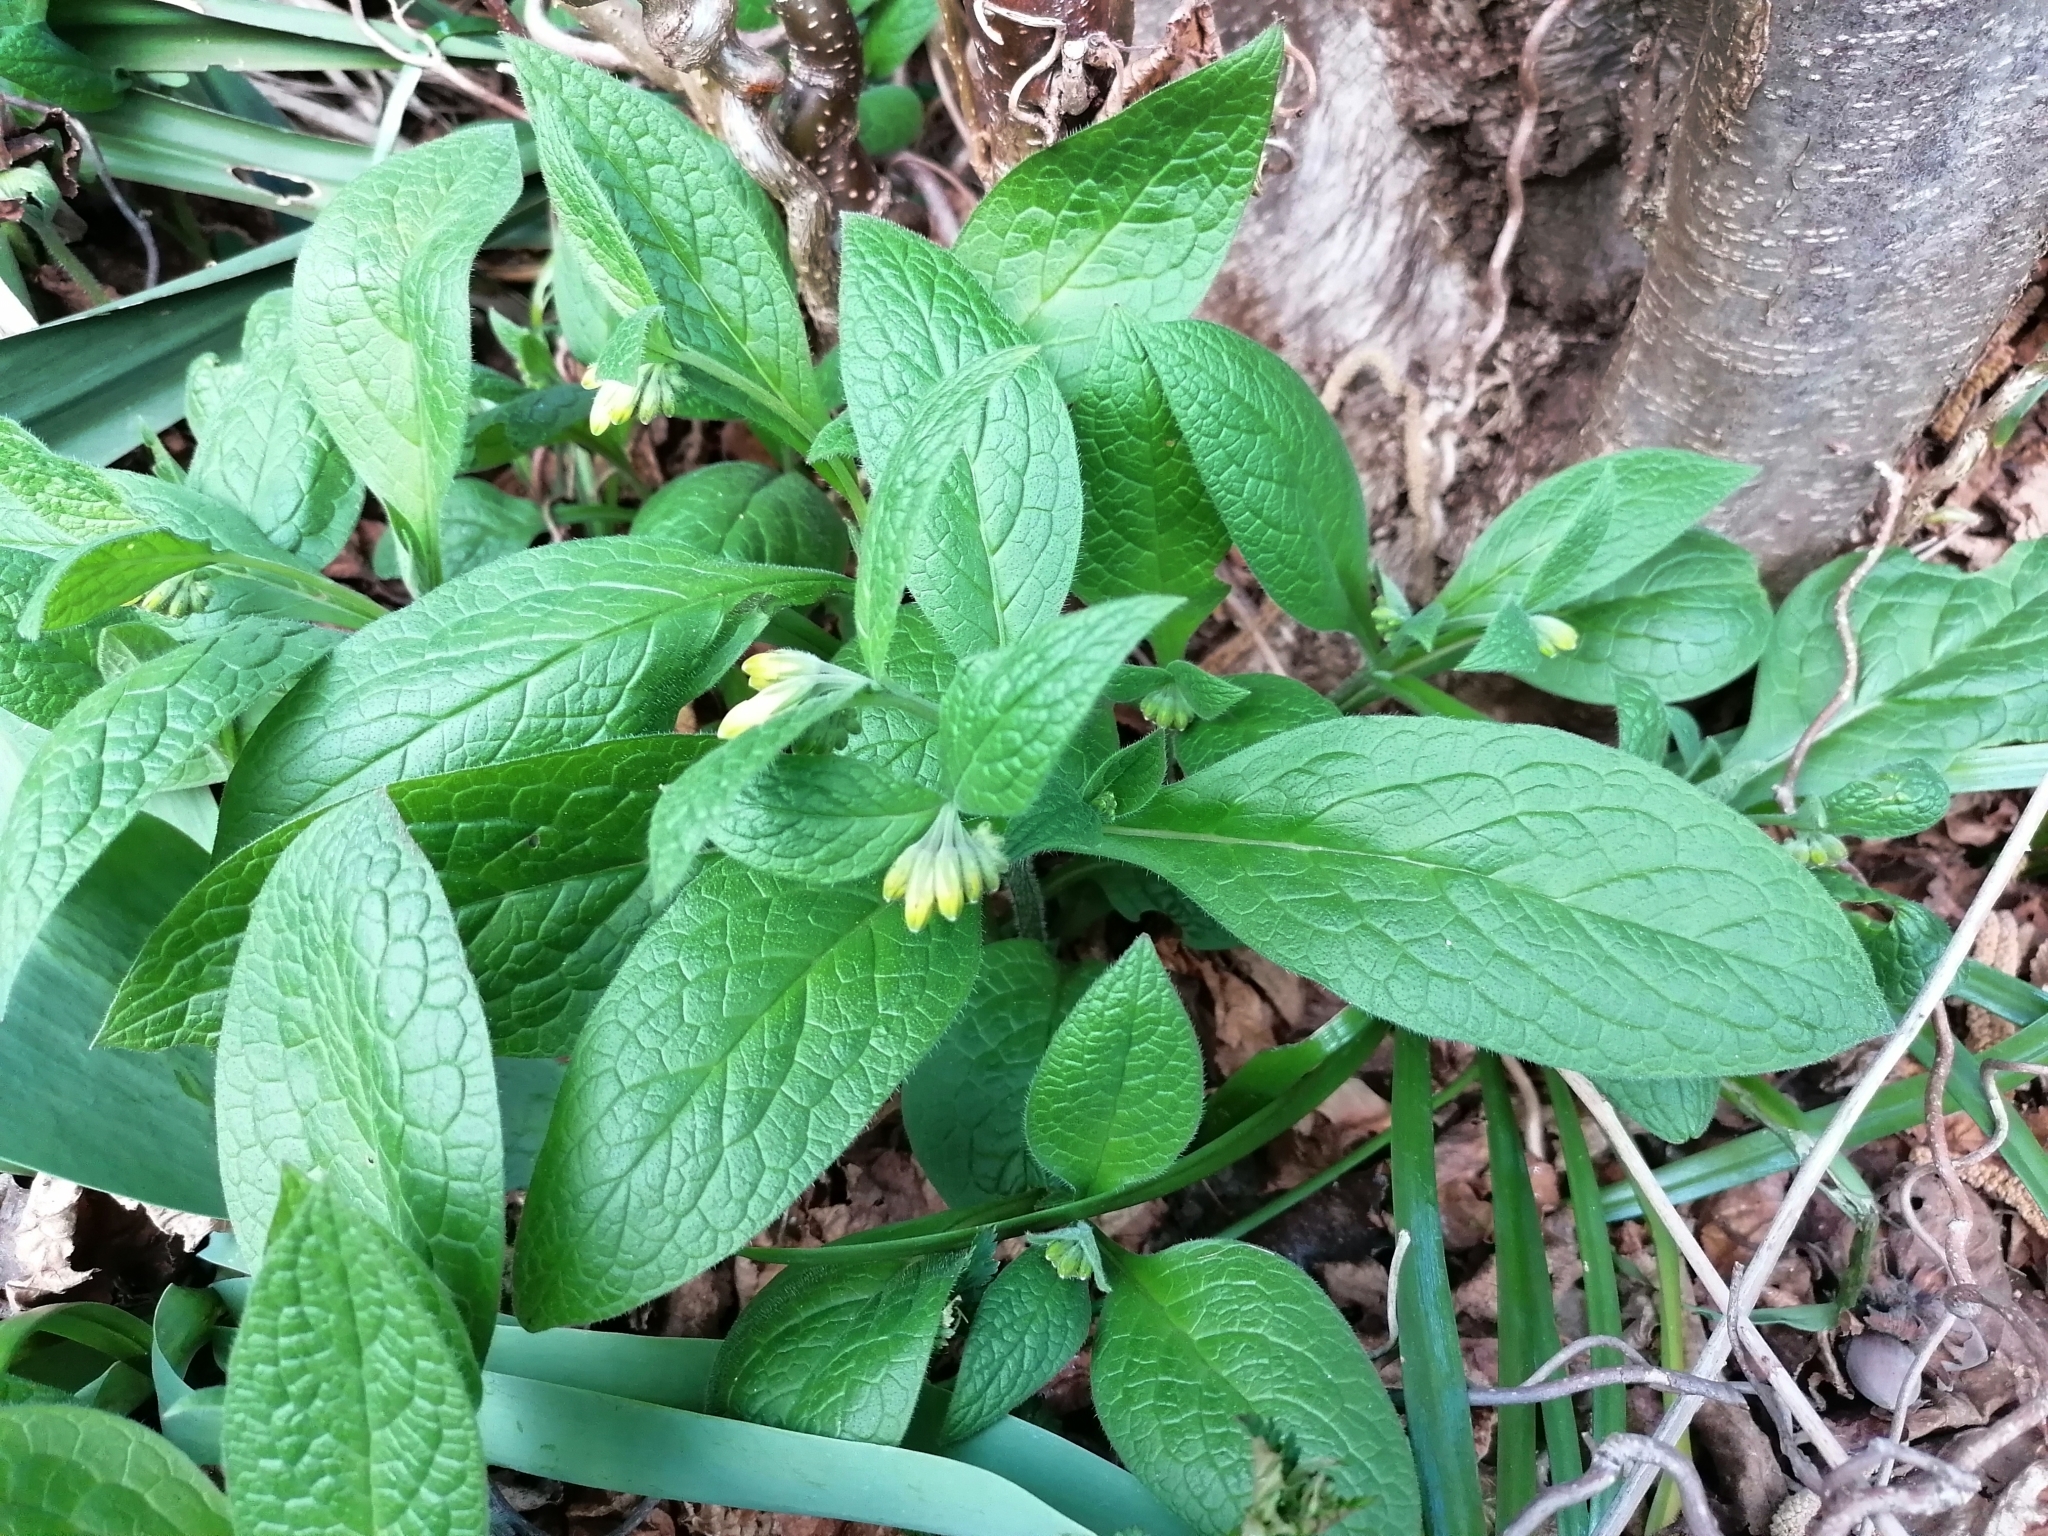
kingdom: Plantae
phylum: Tracheophyta
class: Magnoliopsida
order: Boraginales
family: Boraginaceae
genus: Symphytum
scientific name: Symphytum tuberosum
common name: Tuberous comfrey
